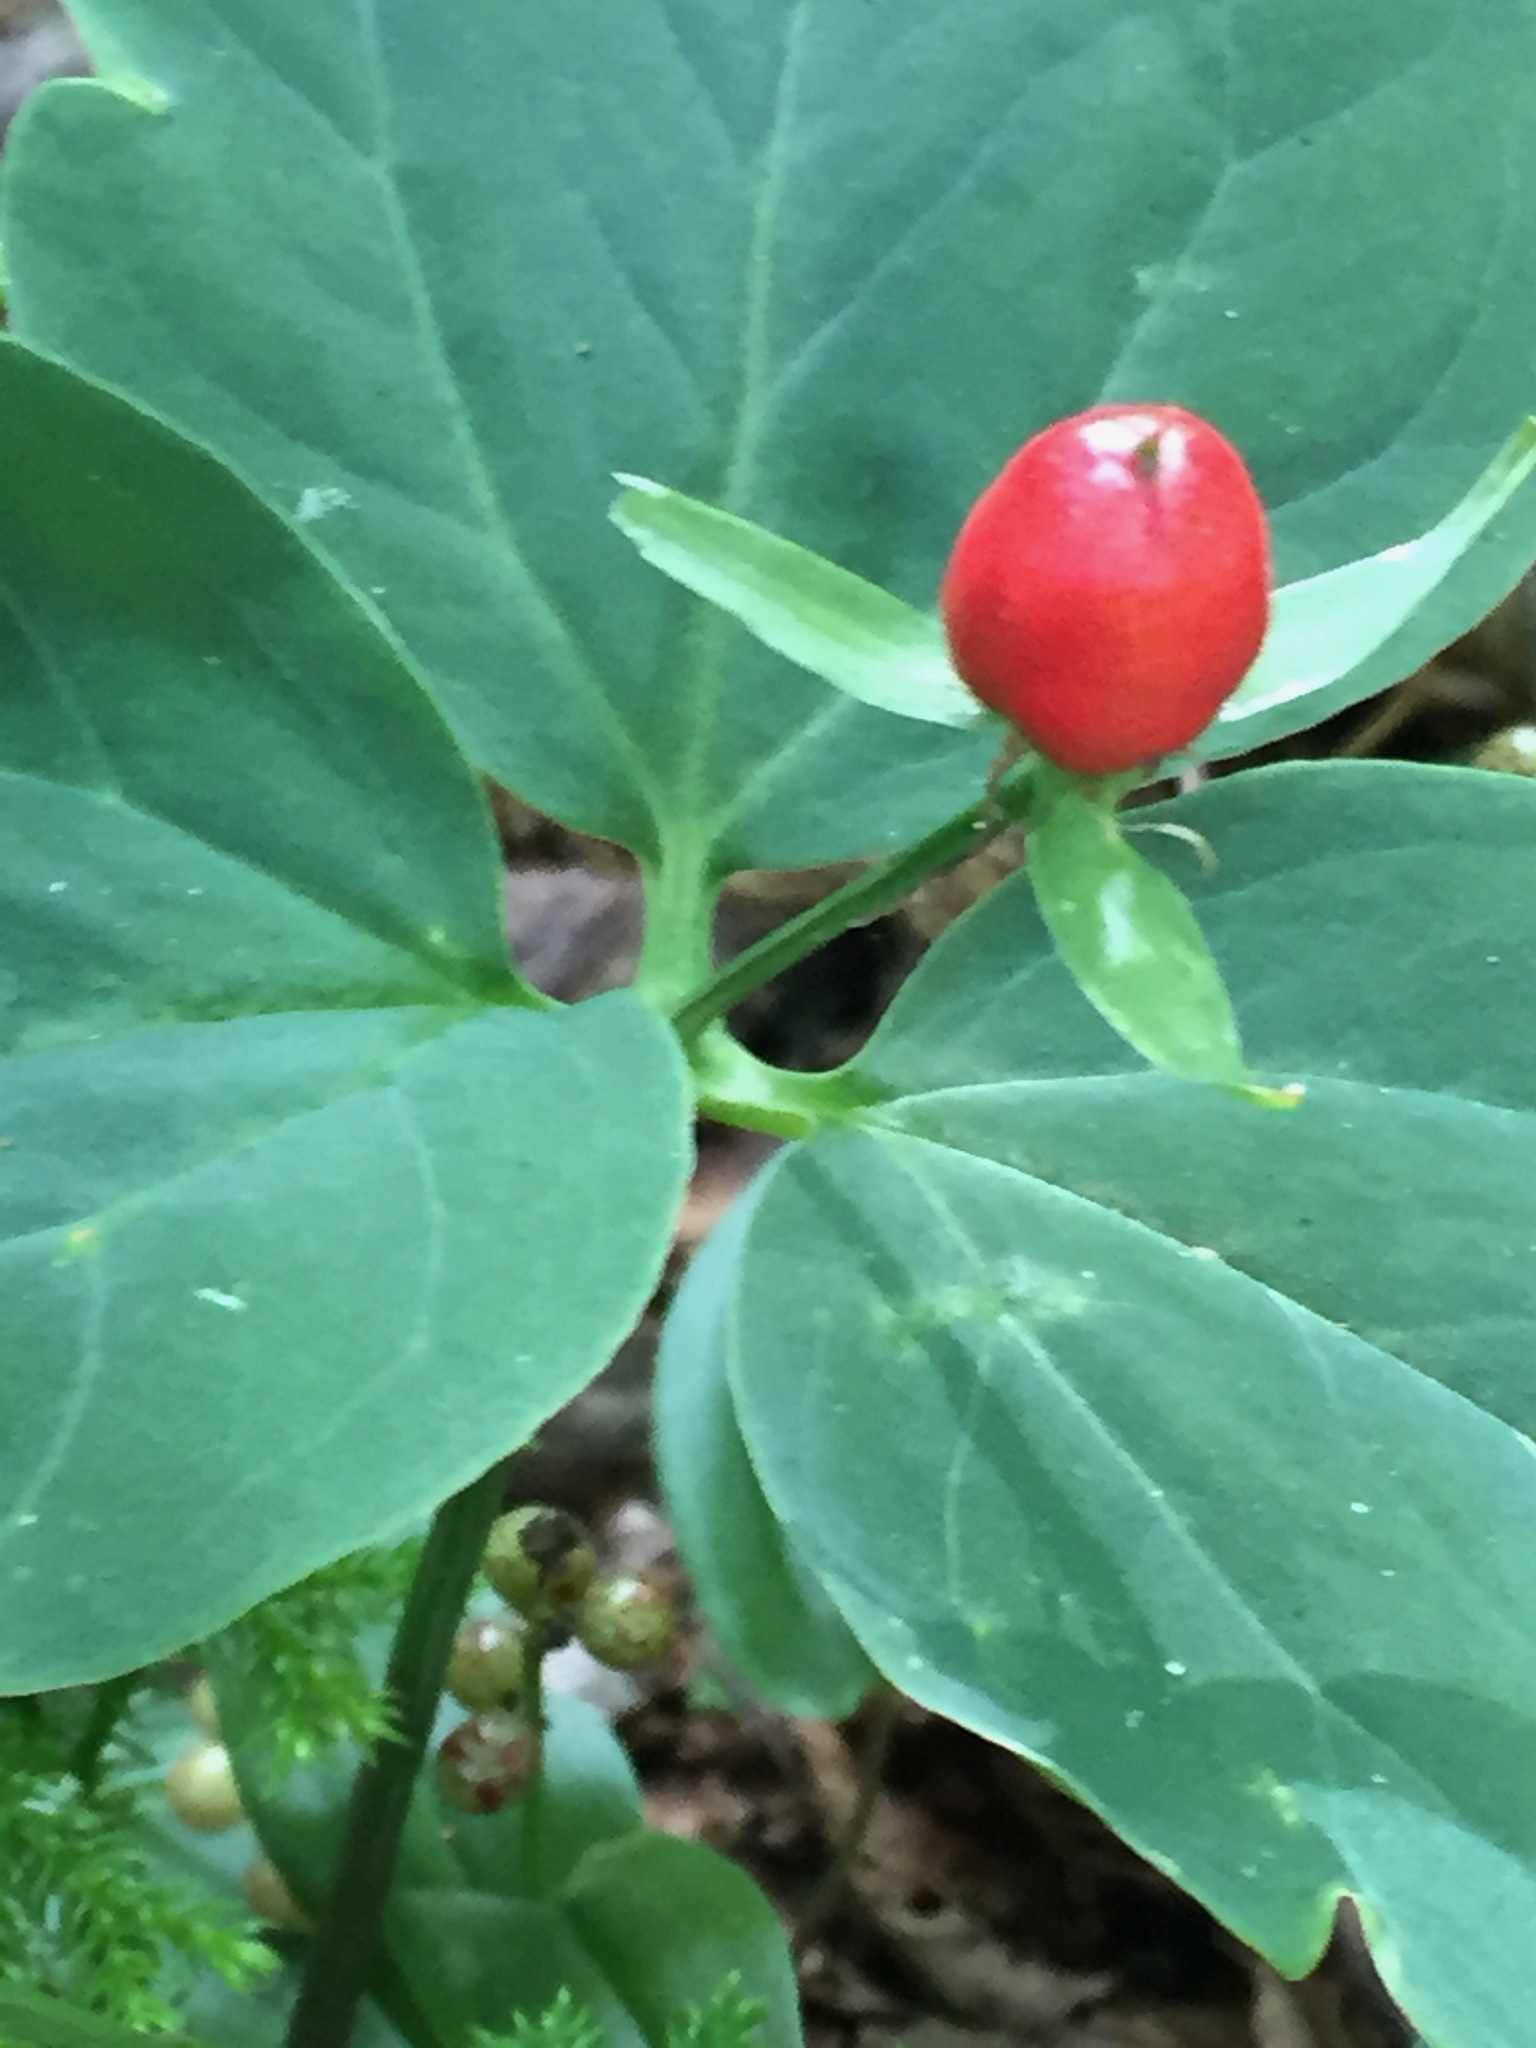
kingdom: Plantae
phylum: Tracheophyta
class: Liliopsida
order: Liliales
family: Melanthiaceae
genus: Trillium
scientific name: Trillium undulatum
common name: Paint trillium
